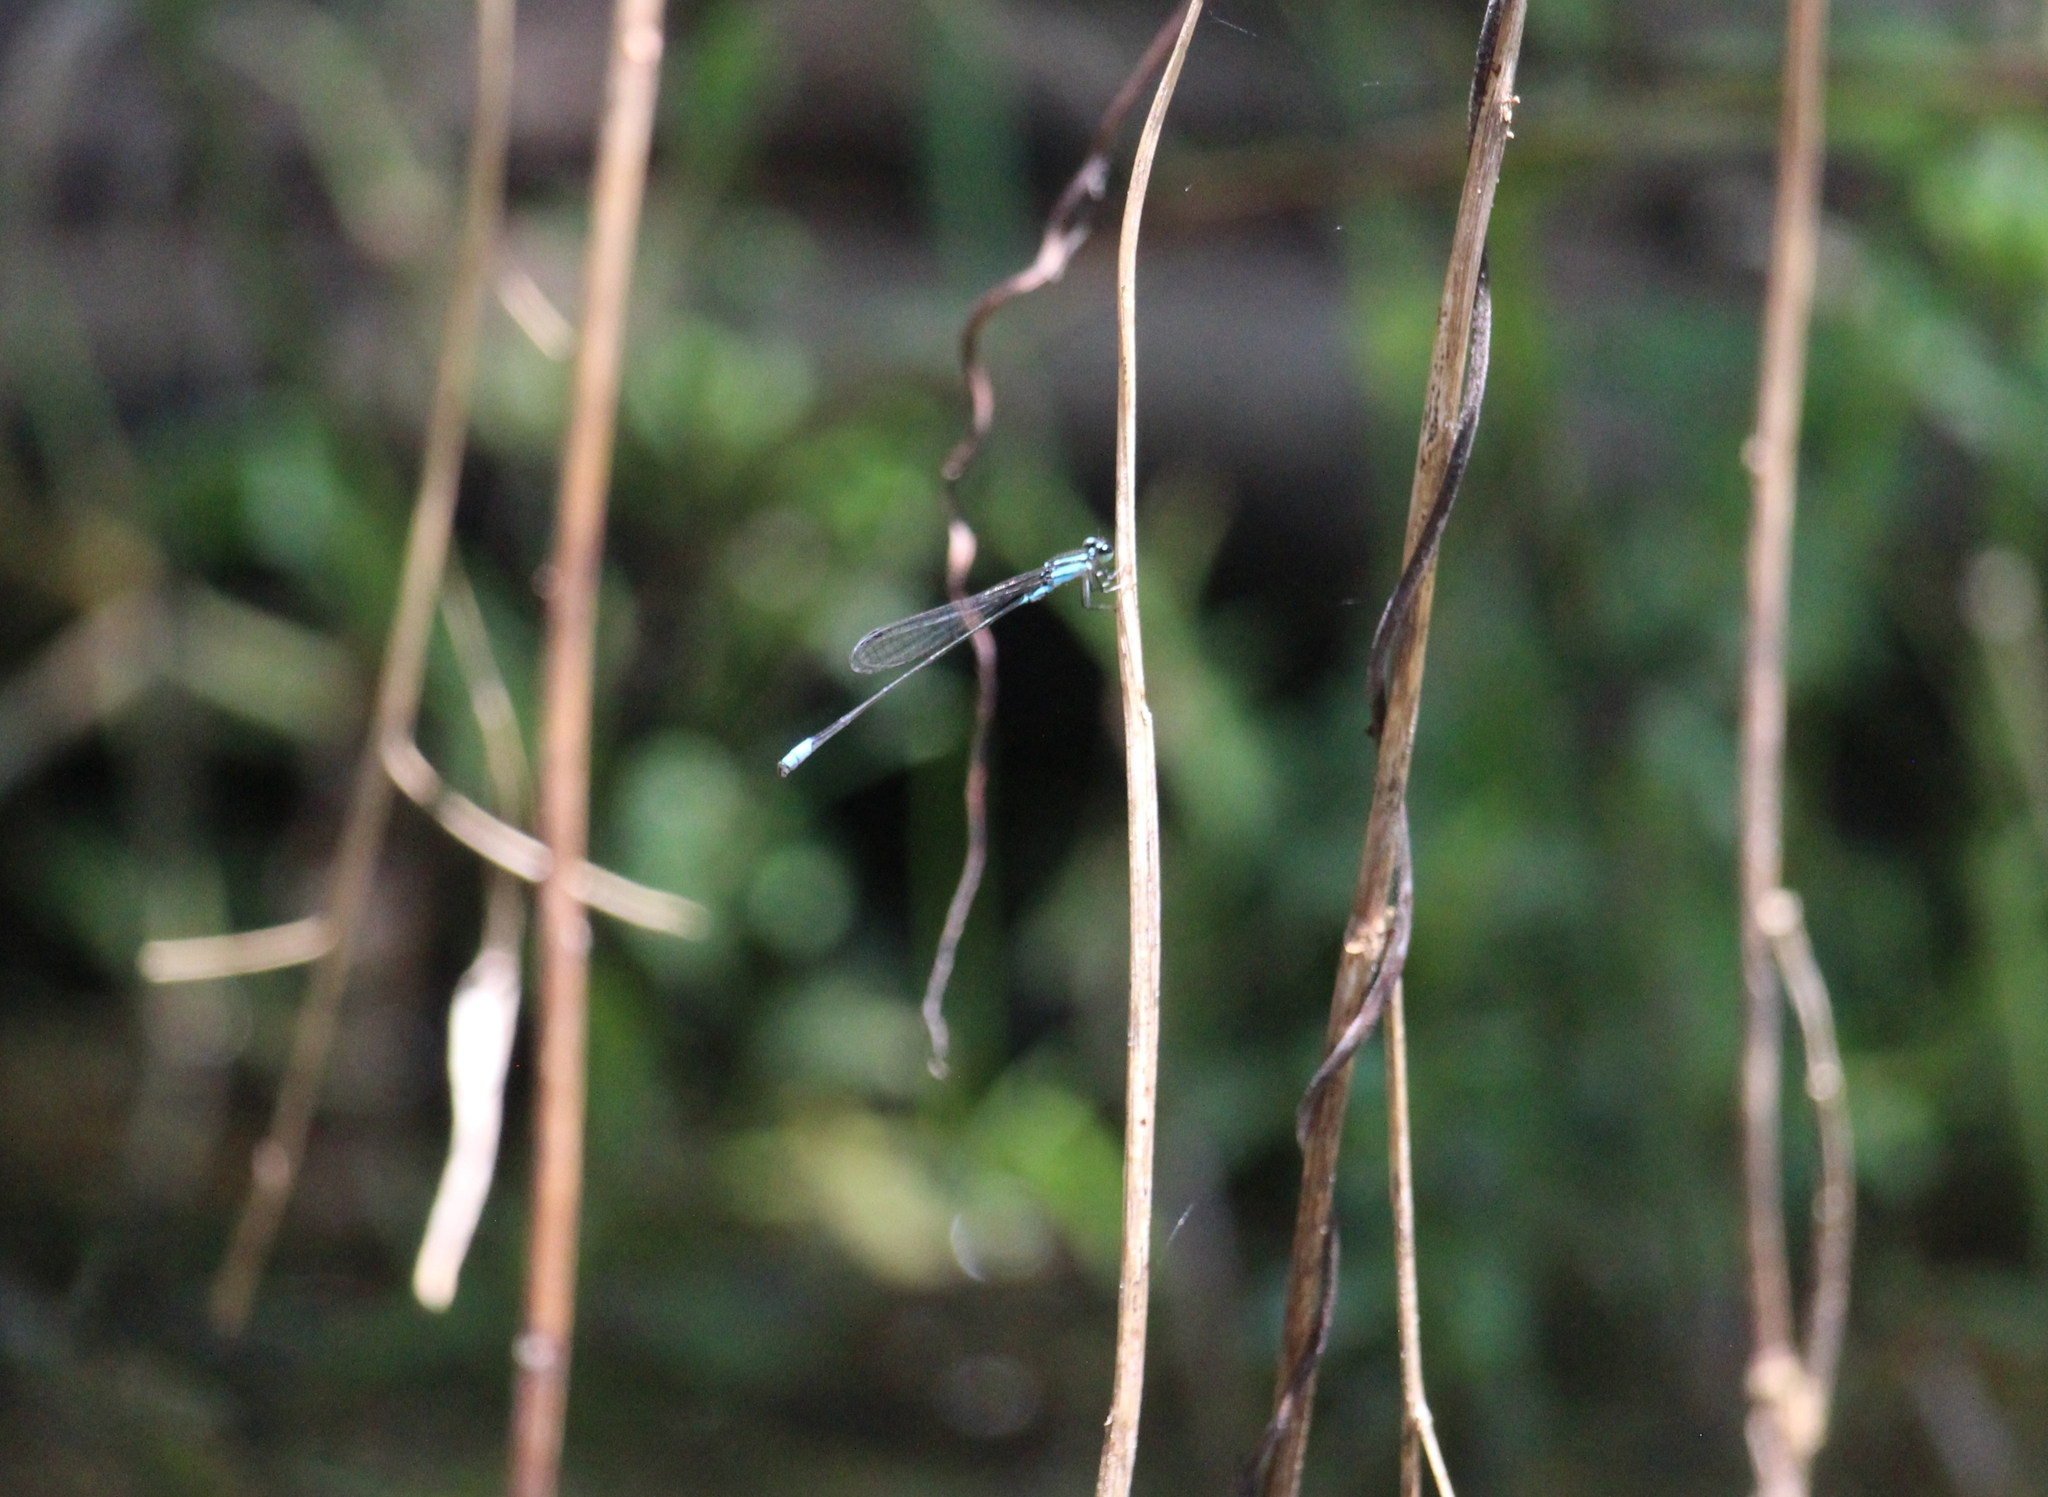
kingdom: Animalia
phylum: Arthropoda
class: Insecta
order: Odonata
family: Coenagrionidae
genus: Acanthagrion
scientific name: Acanthagrion quadratum
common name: Mexican wedgetail
